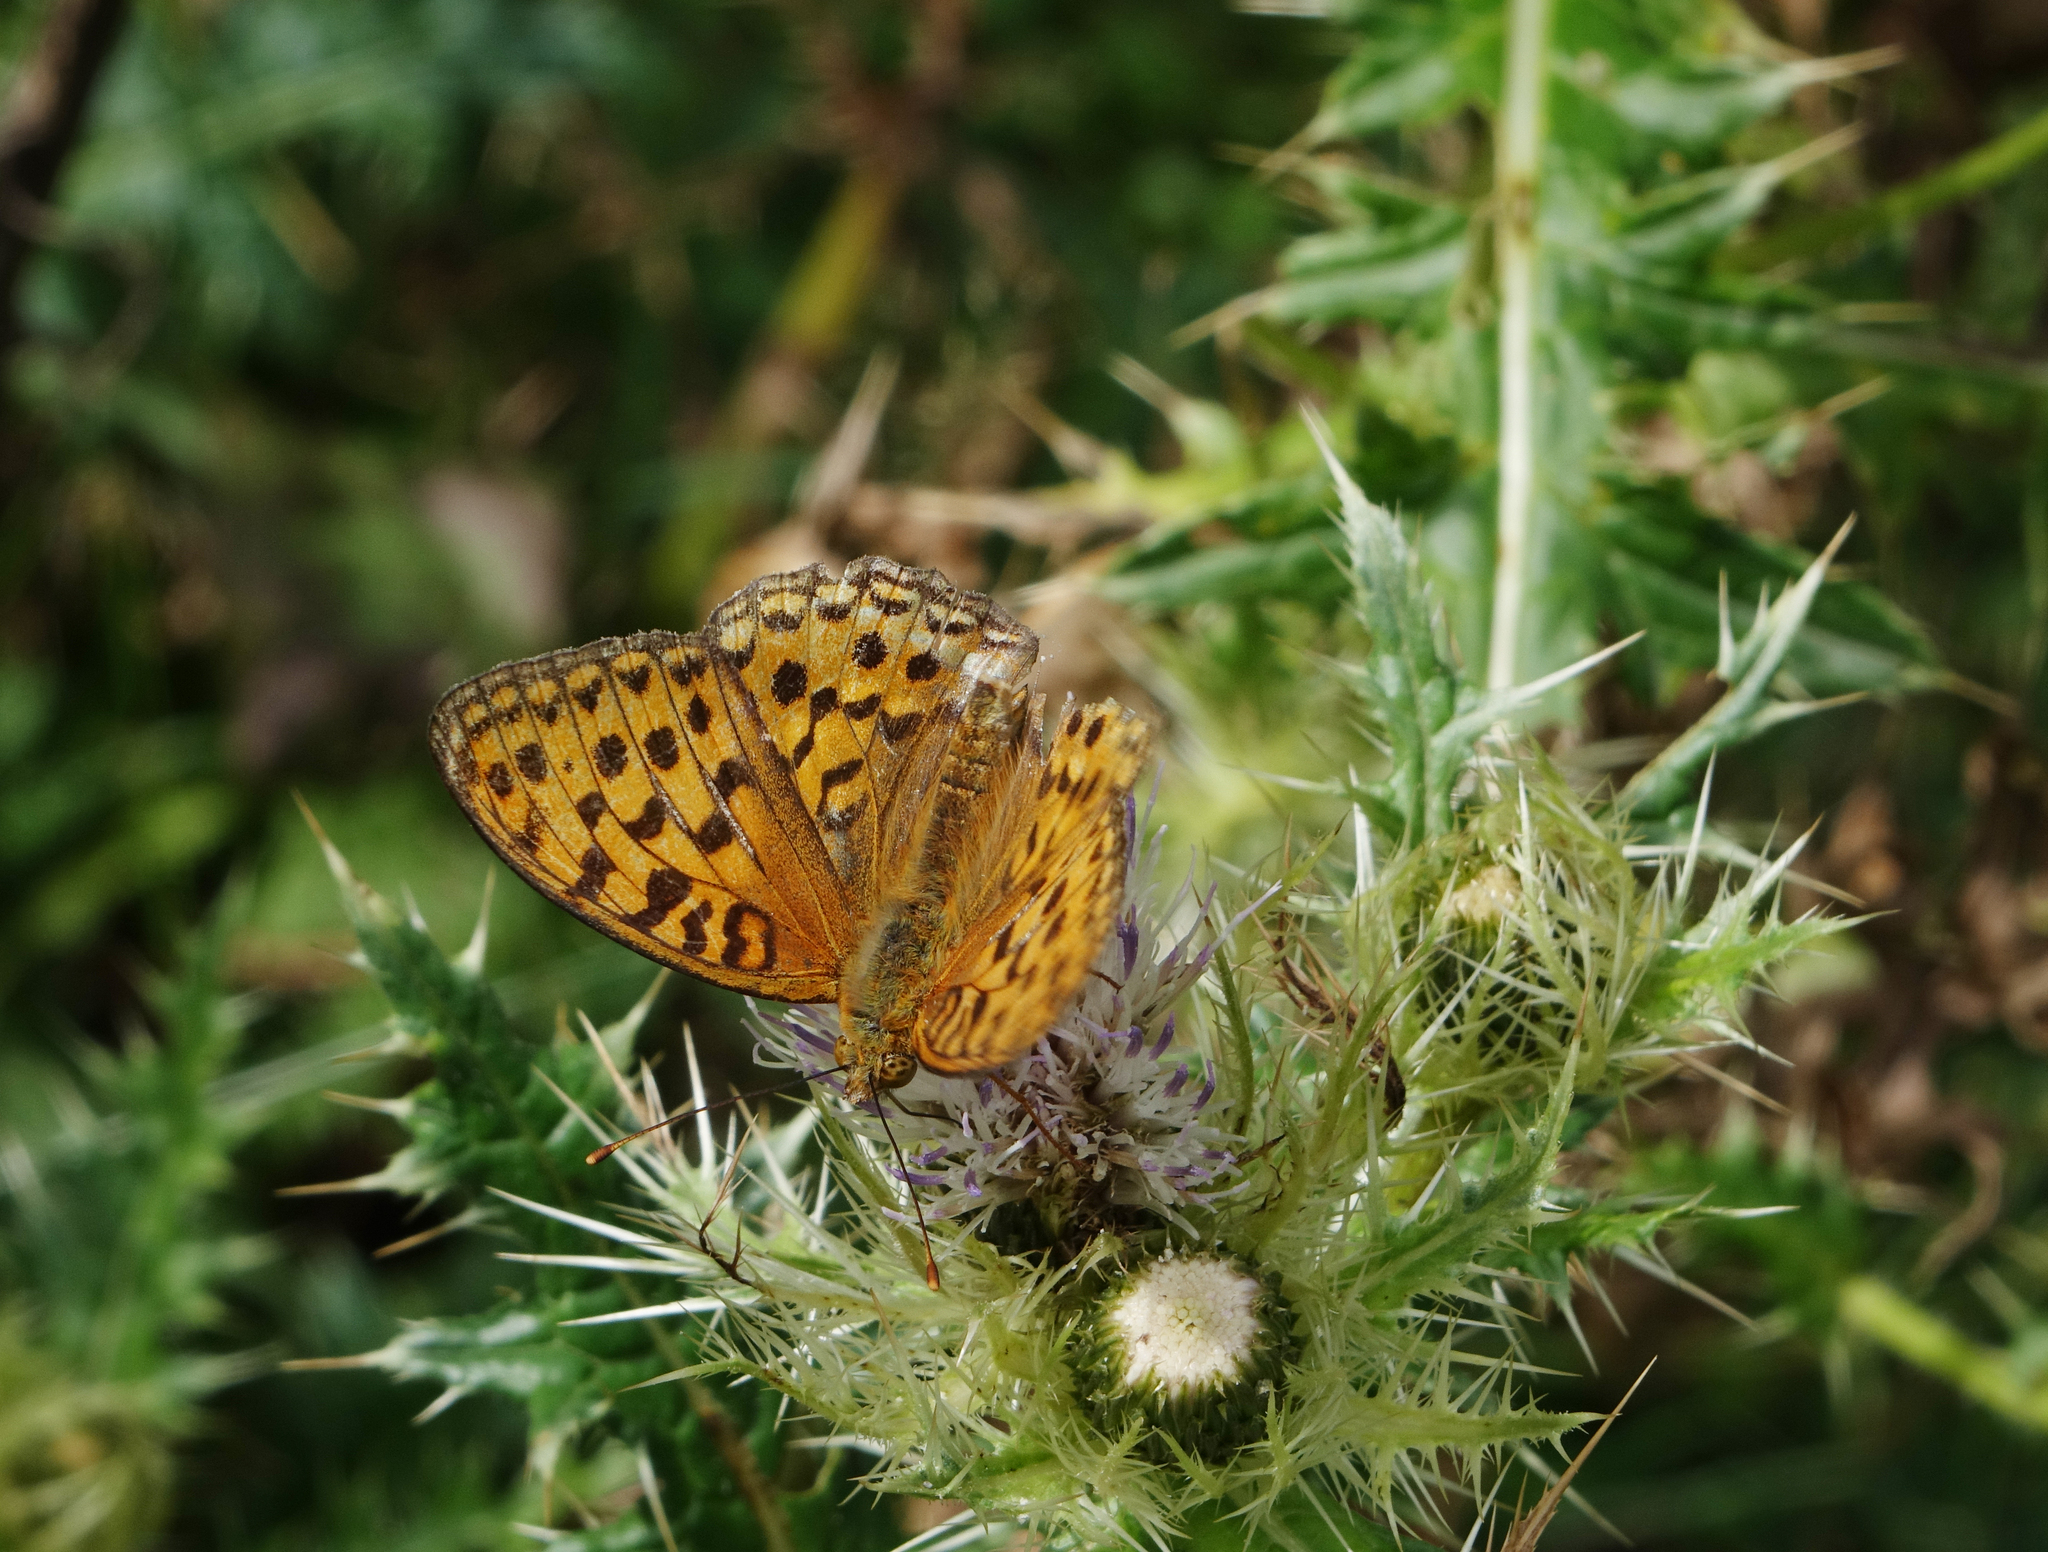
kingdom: Animalia
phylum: Arthropoda
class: Insecta
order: Lepidoptera
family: Nymphalidae
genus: Fabriciana
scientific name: Fabriciana adippe
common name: High brown fritillary
